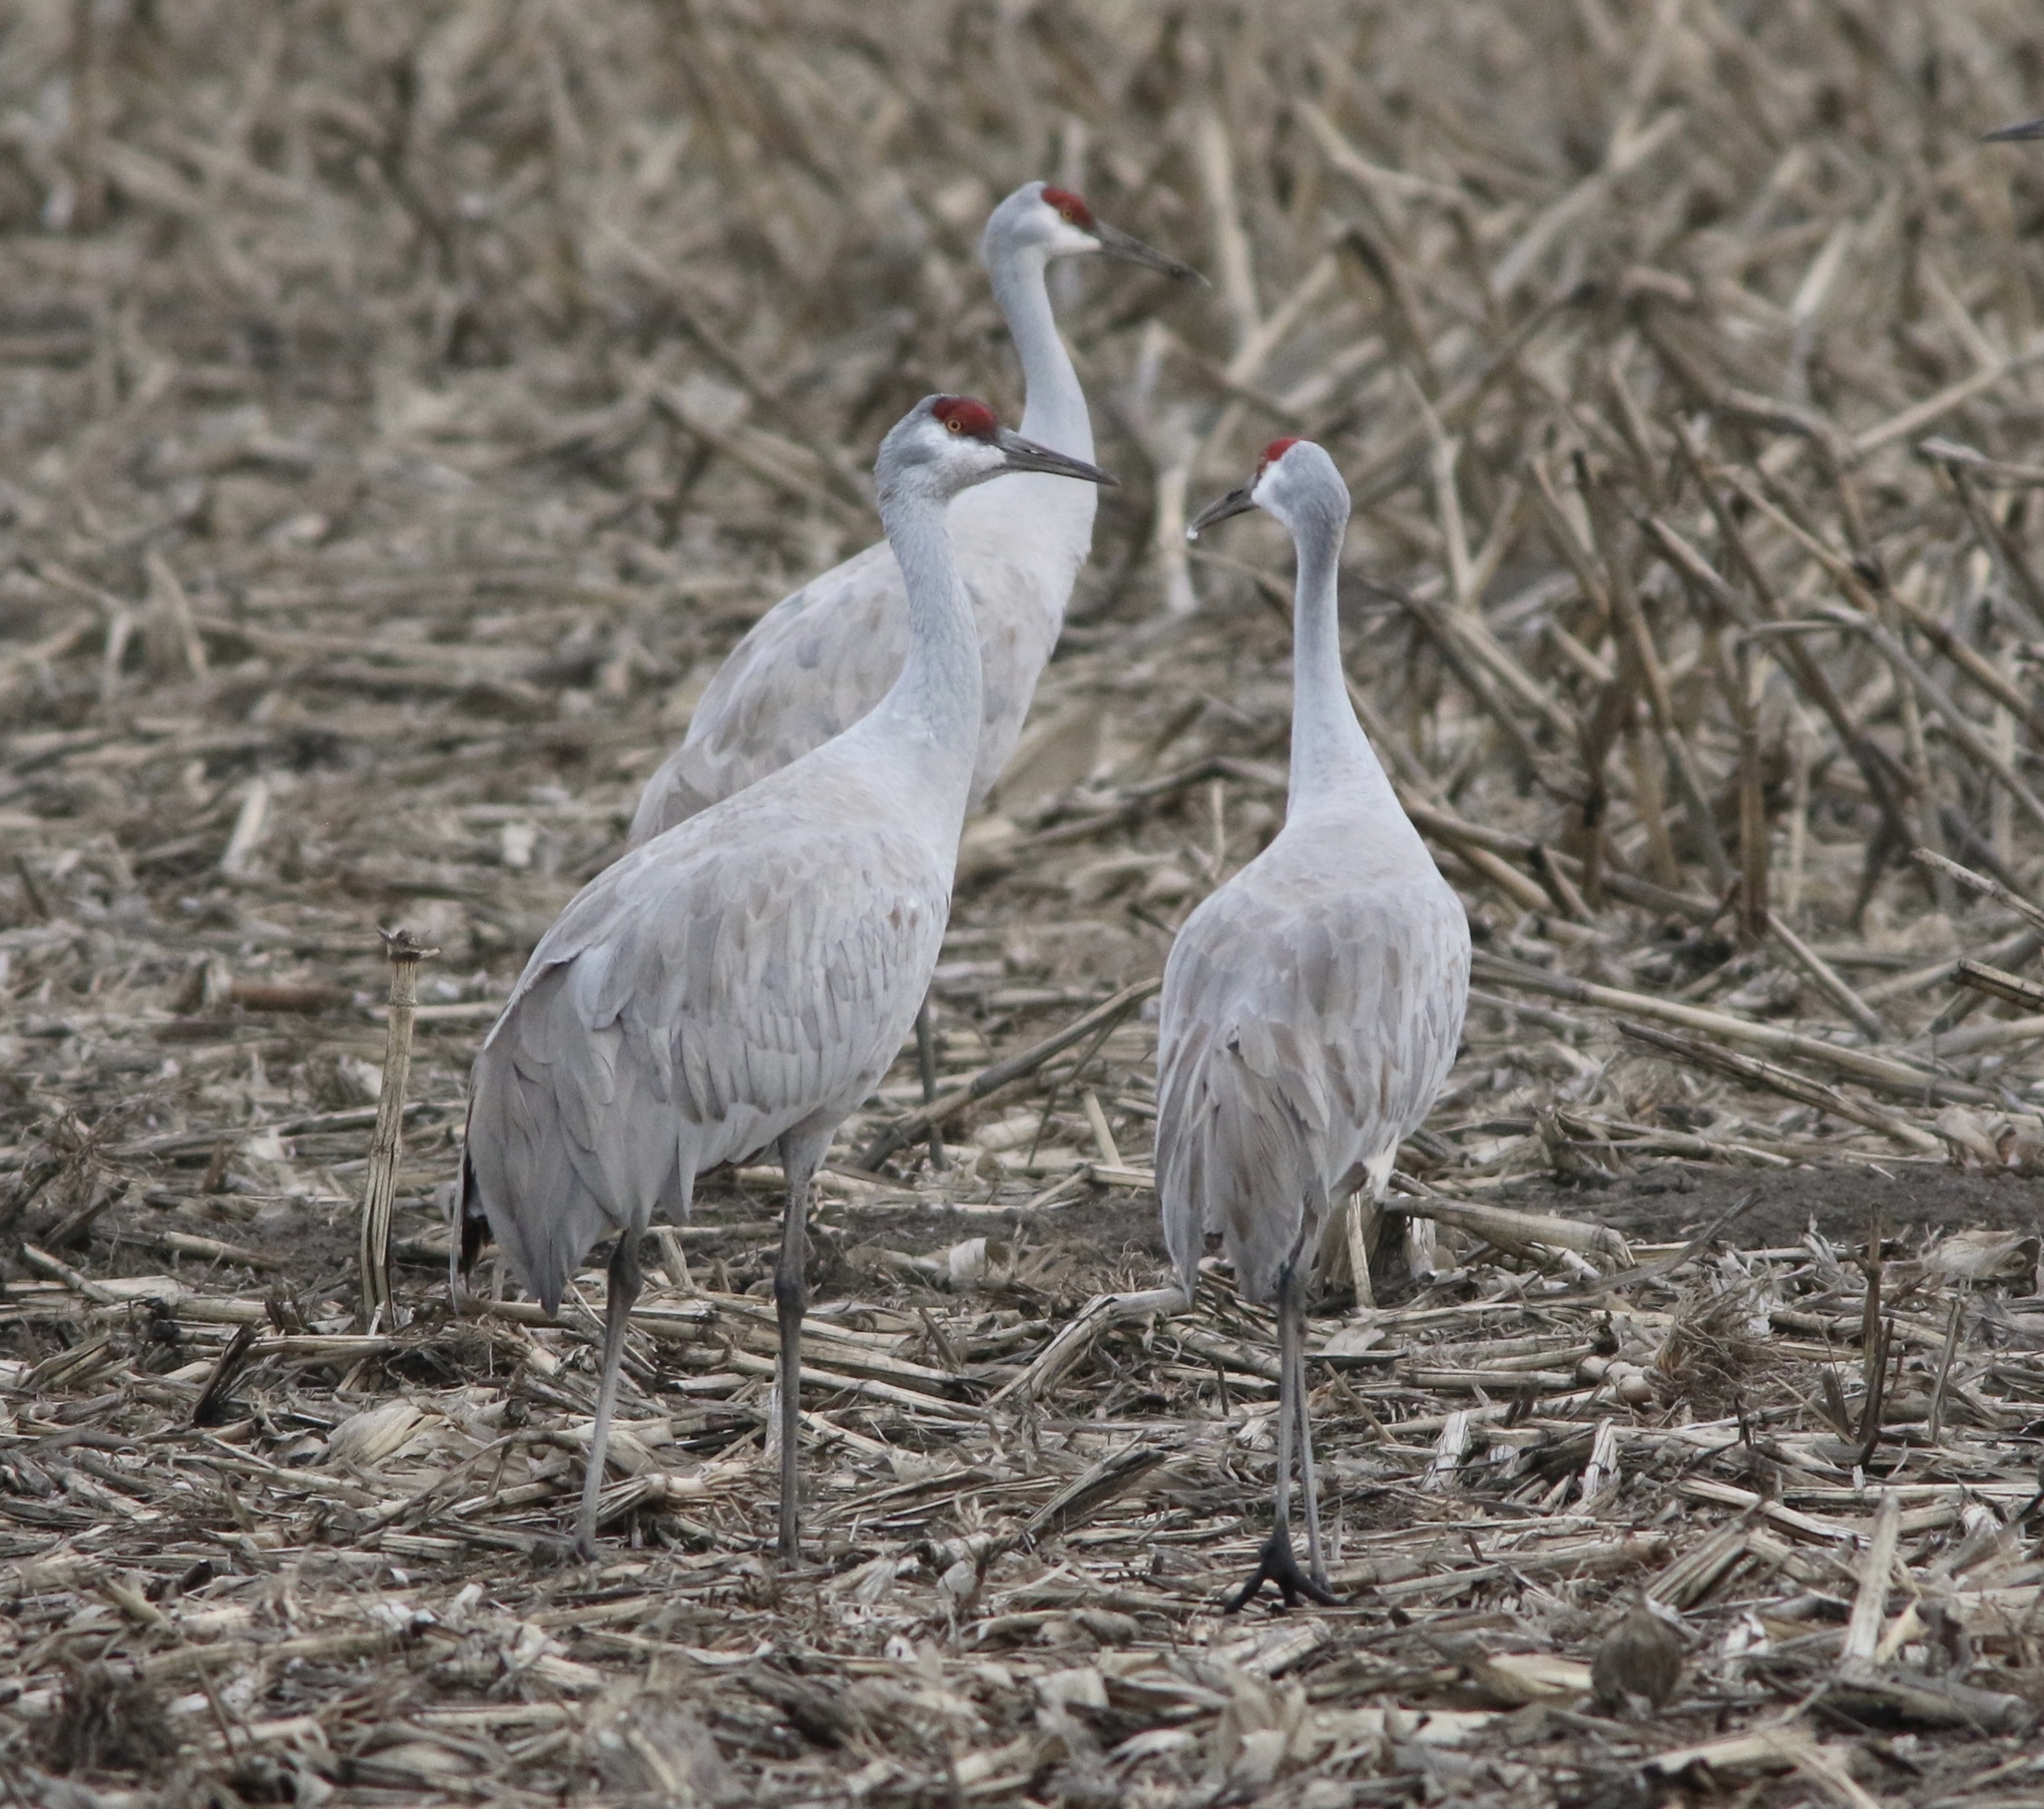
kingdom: Animalia
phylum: Chordata
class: Aves
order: Gruiformes
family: Gruidae
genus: Grus
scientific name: Grus canadensis
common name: Sandhill crane
